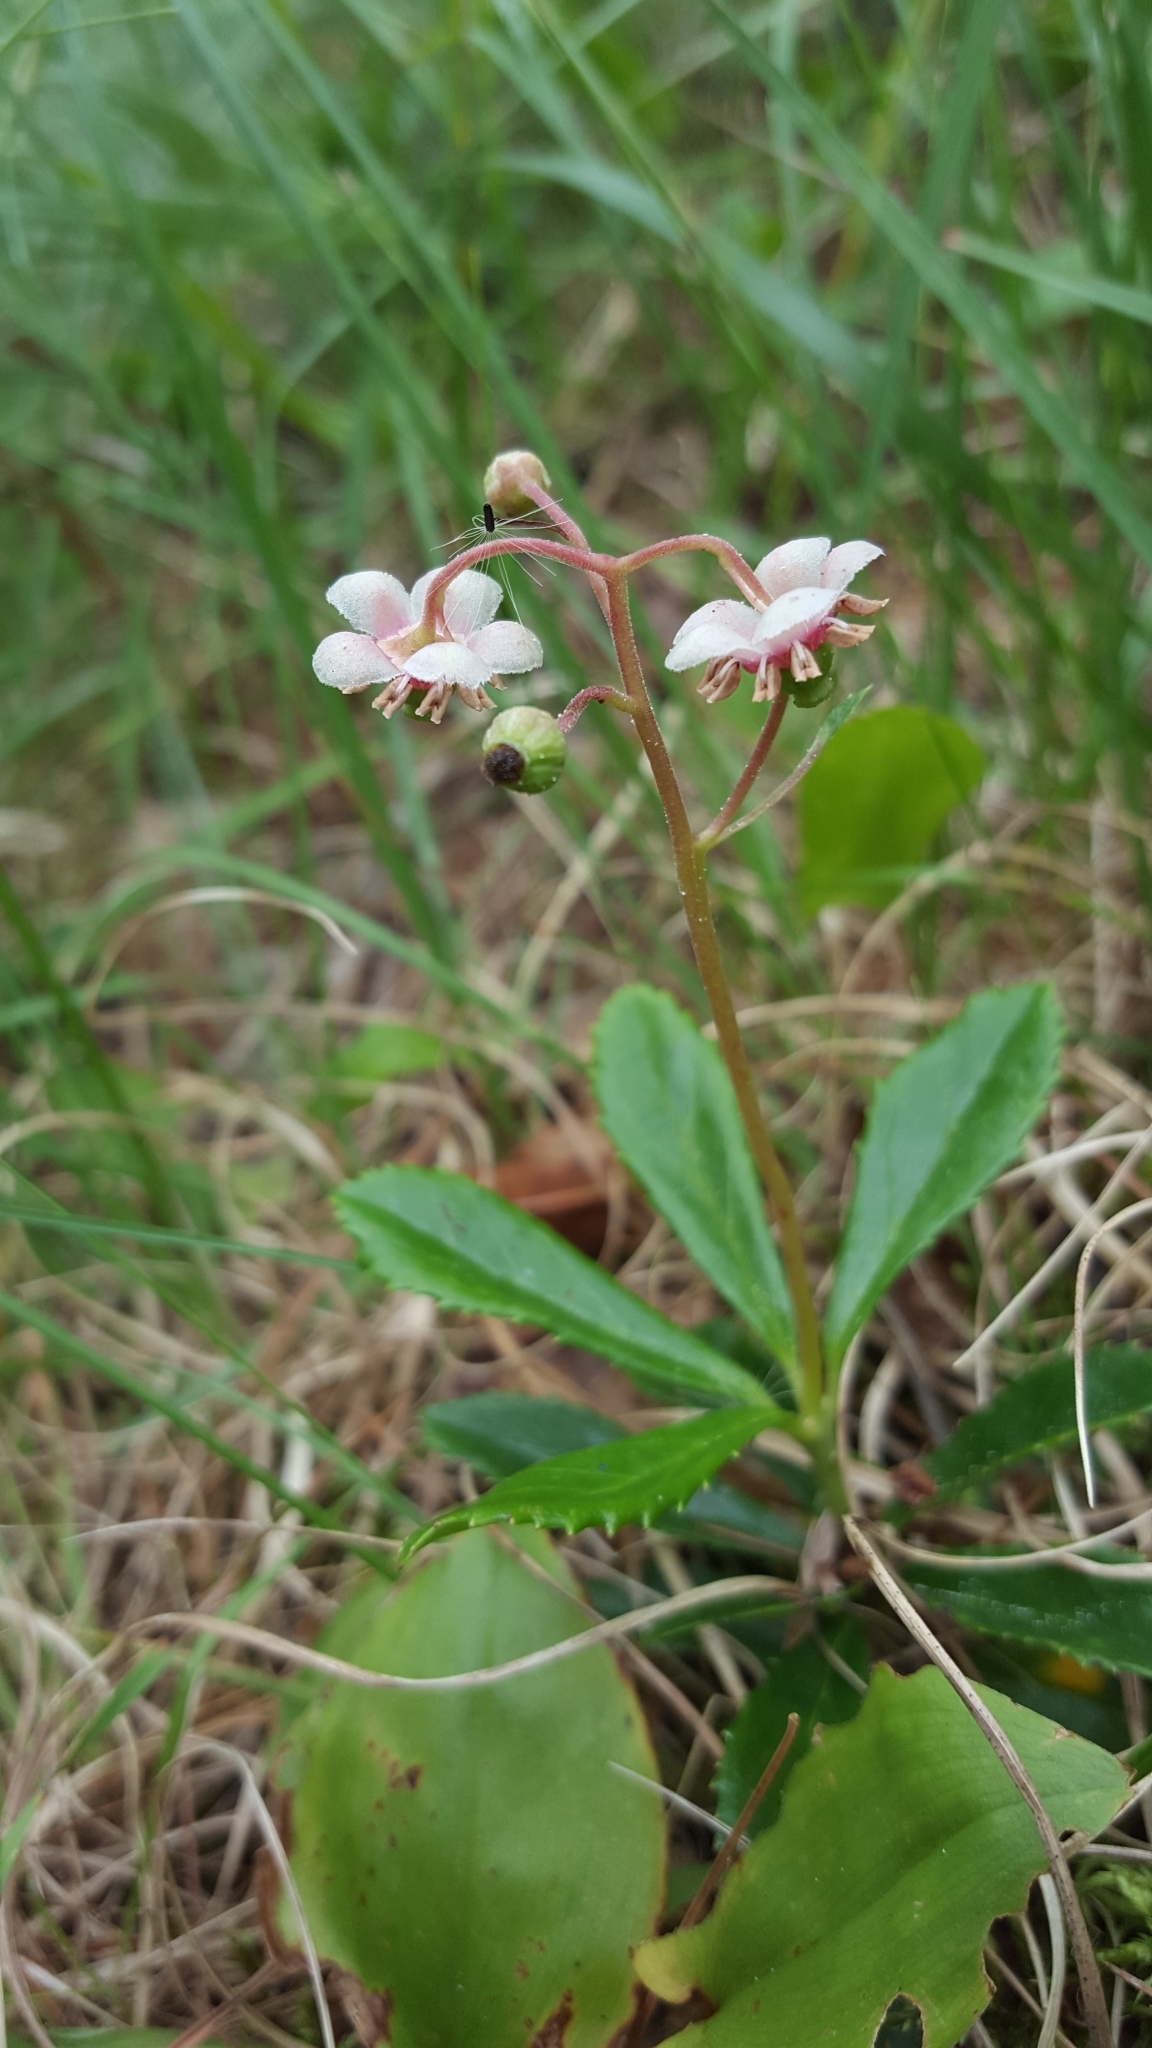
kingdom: Plantae
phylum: Tracheophyta
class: Magnoliopsida
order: Ericales
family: Ericaceae
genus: Chimaphila
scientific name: Chimaphila umbellata
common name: Pipsissewa
